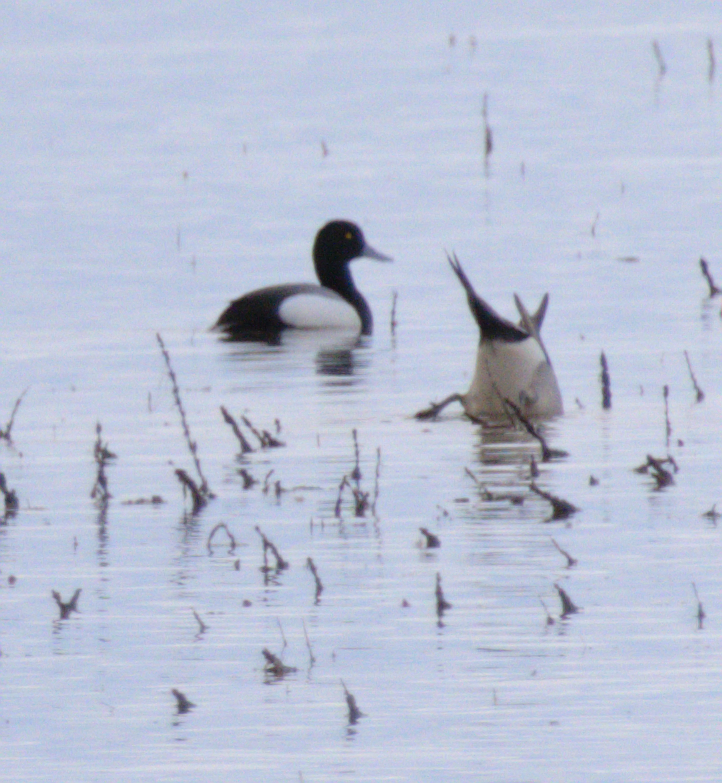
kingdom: Animalia
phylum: Chordata
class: Aves
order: Anseriformes
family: Anatidae
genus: Aythya
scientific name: Aythya affinis
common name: Lesser scaup
